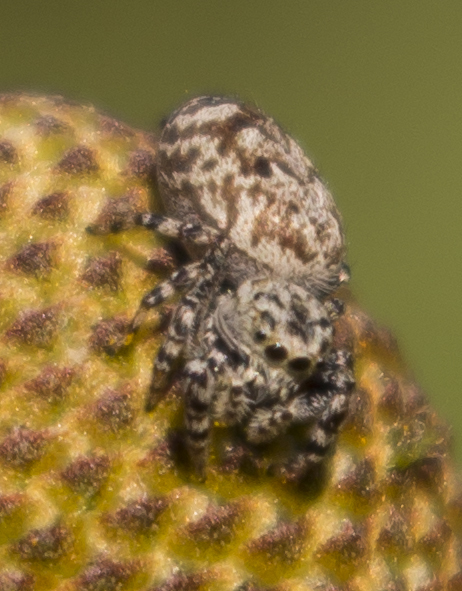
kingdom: Animalia
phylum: Arthropoda
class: Arachnida
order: Araneae
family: Salticidae
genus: Pelegrina
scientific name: Pelegrina galathea
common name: Jumping spiders
